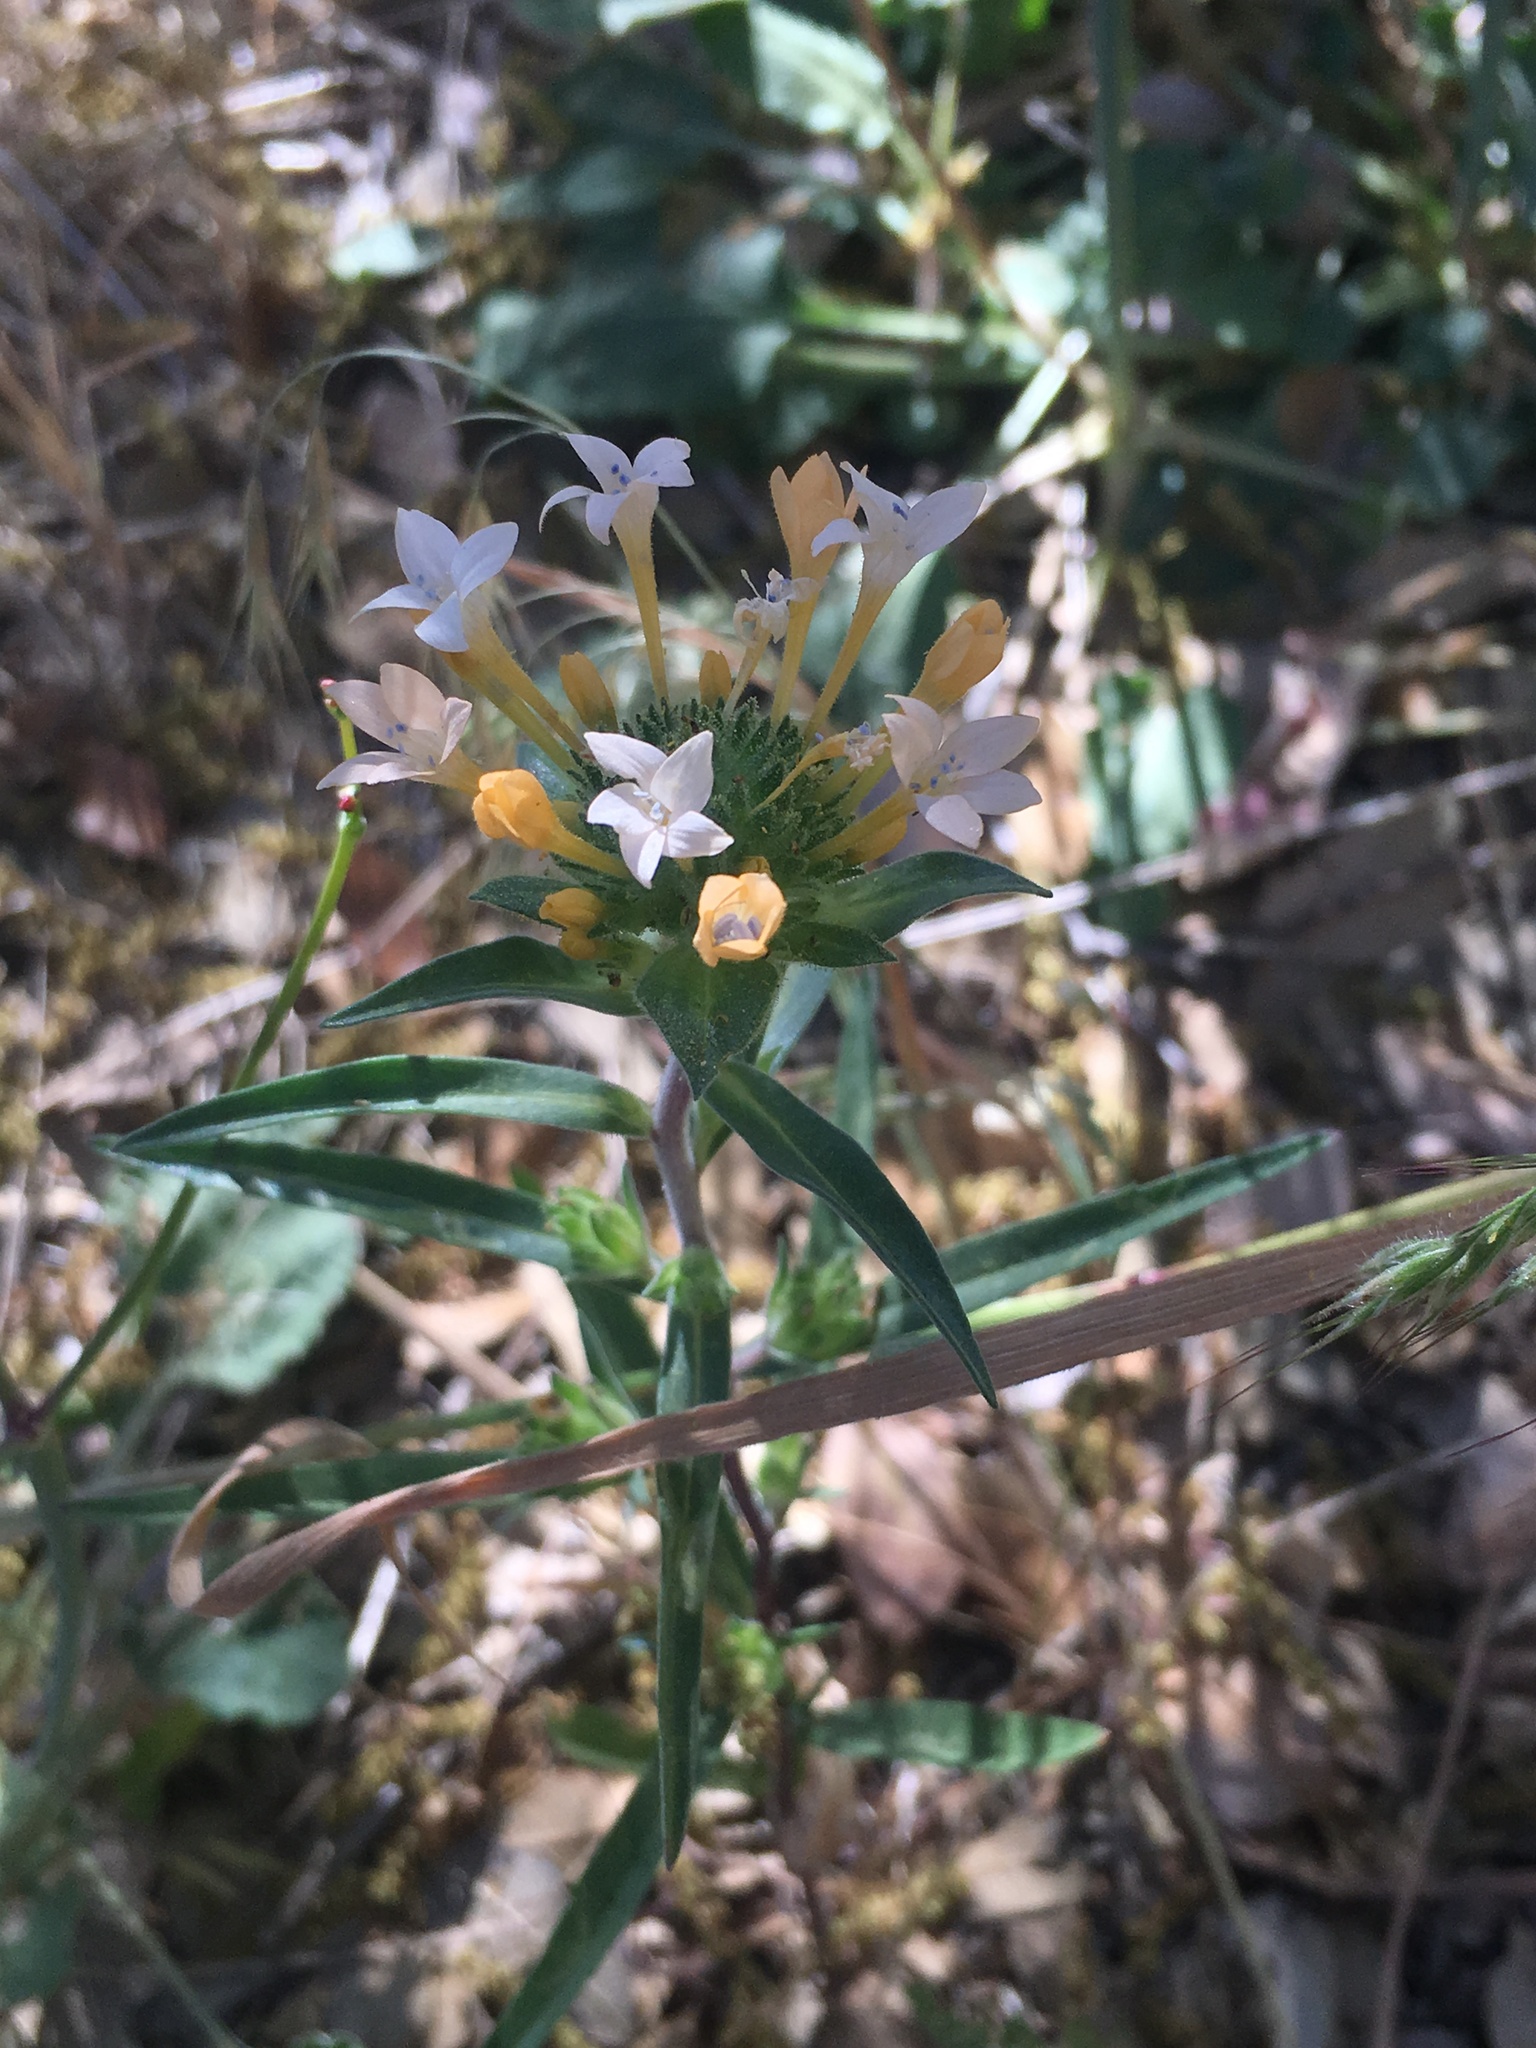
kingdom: Plantae
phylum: Tracheophyta
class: Magnoliopsida
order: Ericales
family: Polemoniaceae
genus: Collomia
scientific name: Collomia grandiflora
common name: California strawflower
